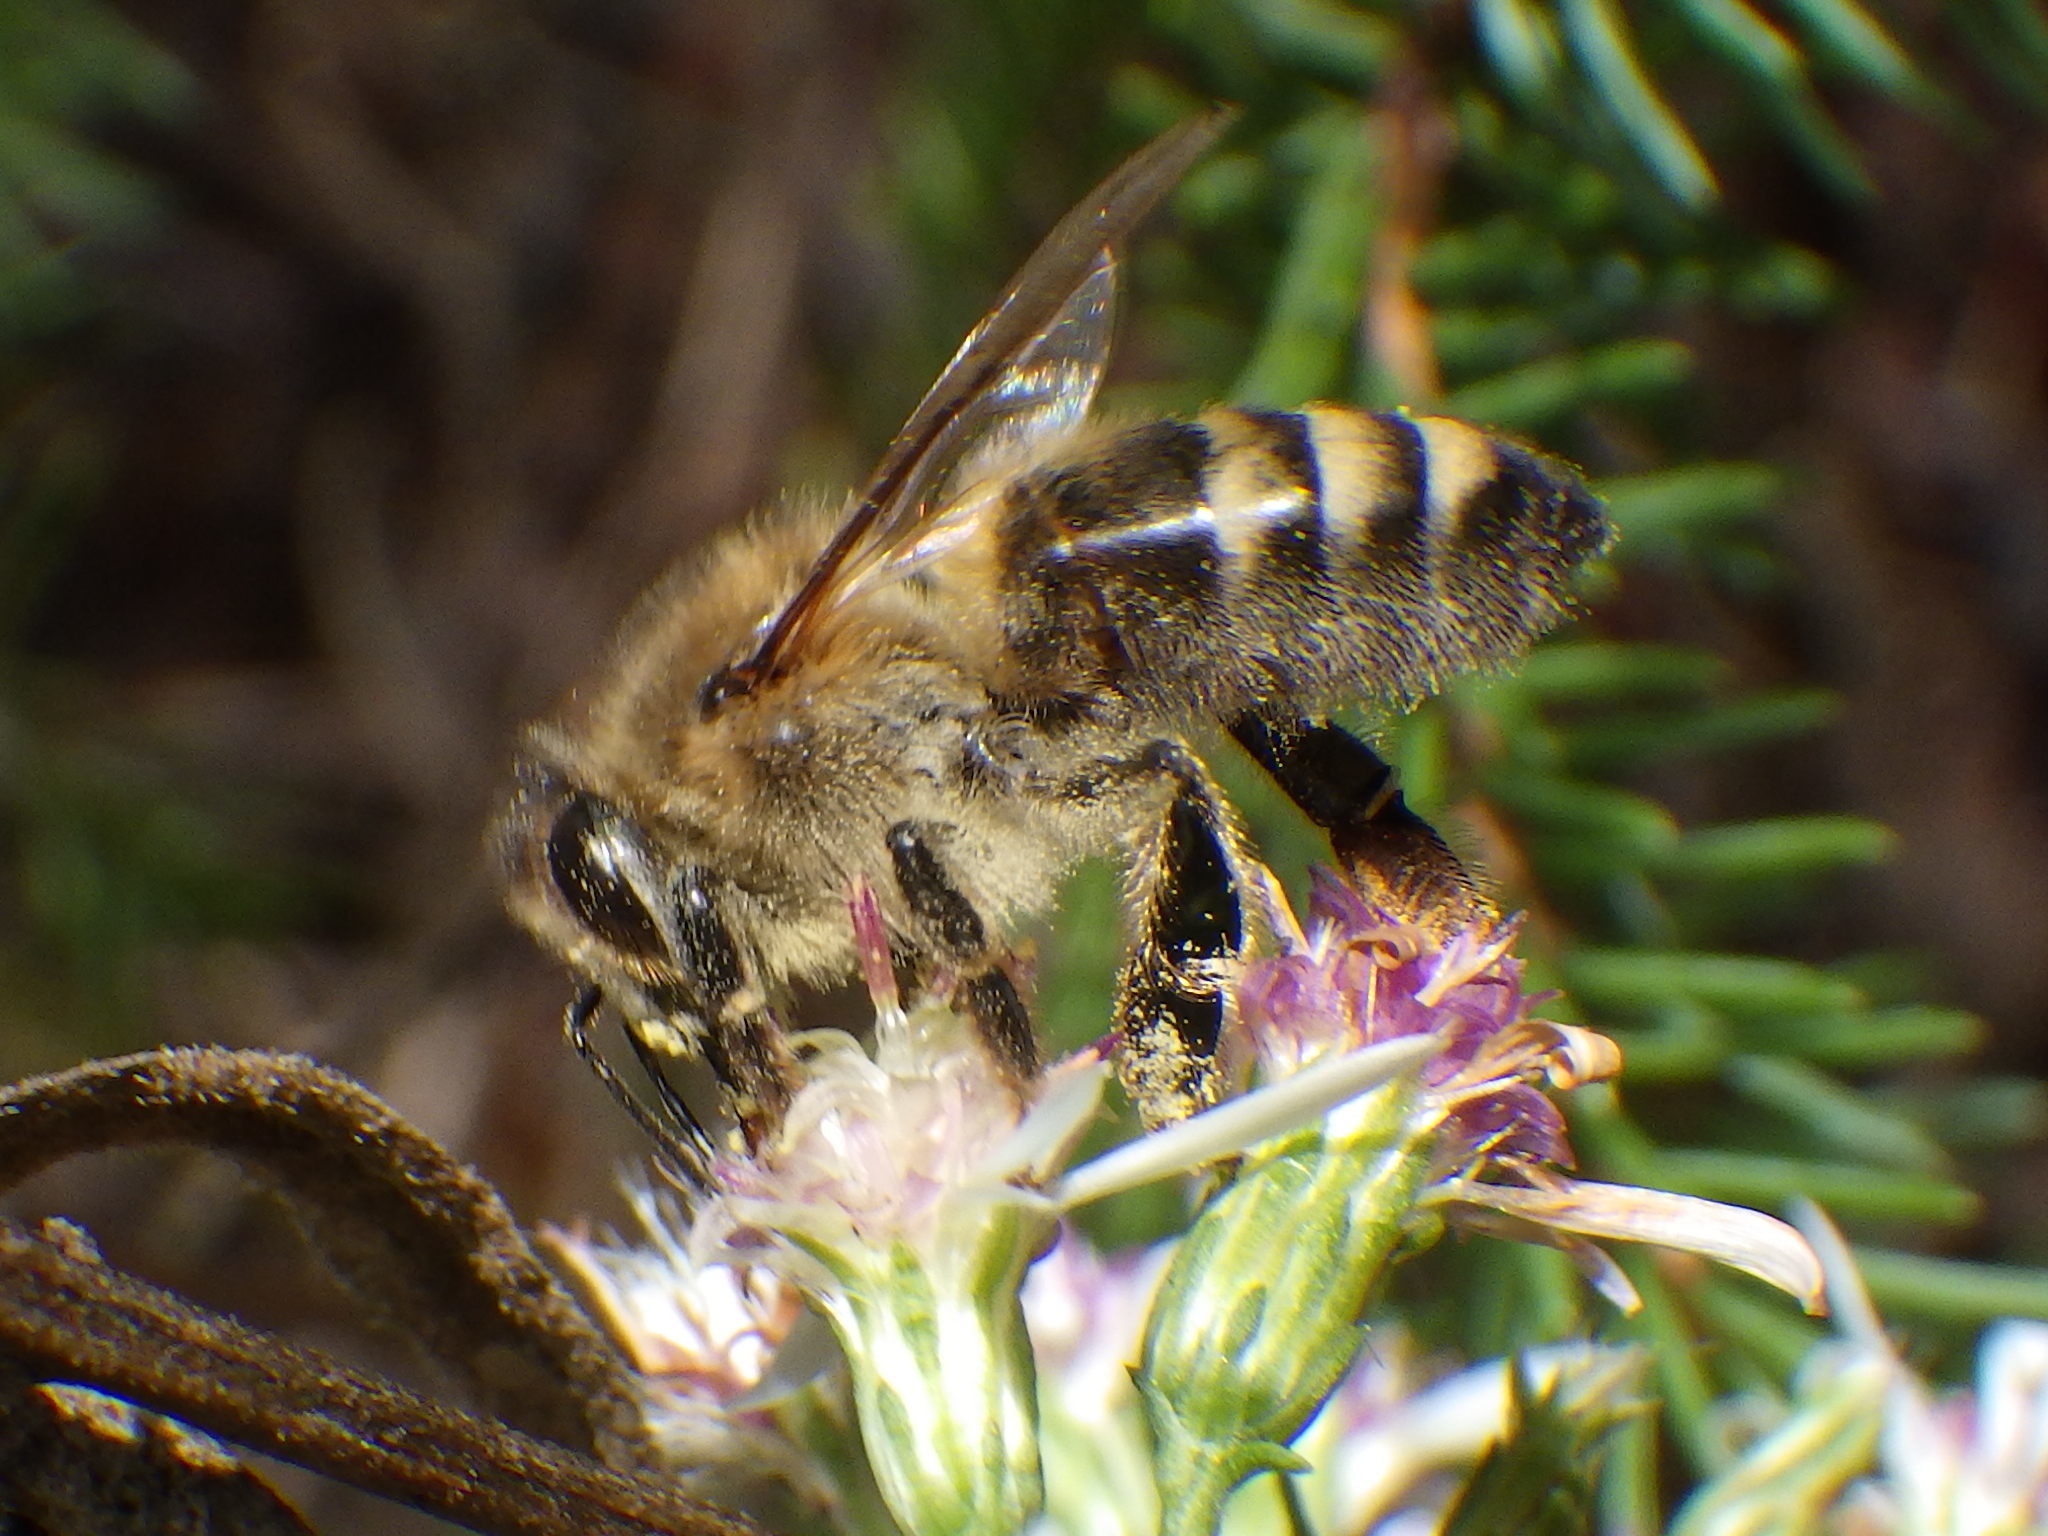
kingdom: Animalia
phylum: Arthropoda
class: Insecta
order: Hymenoptera
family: Apidae
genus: Apis
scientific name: Apis mellifera
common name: Honey bee
